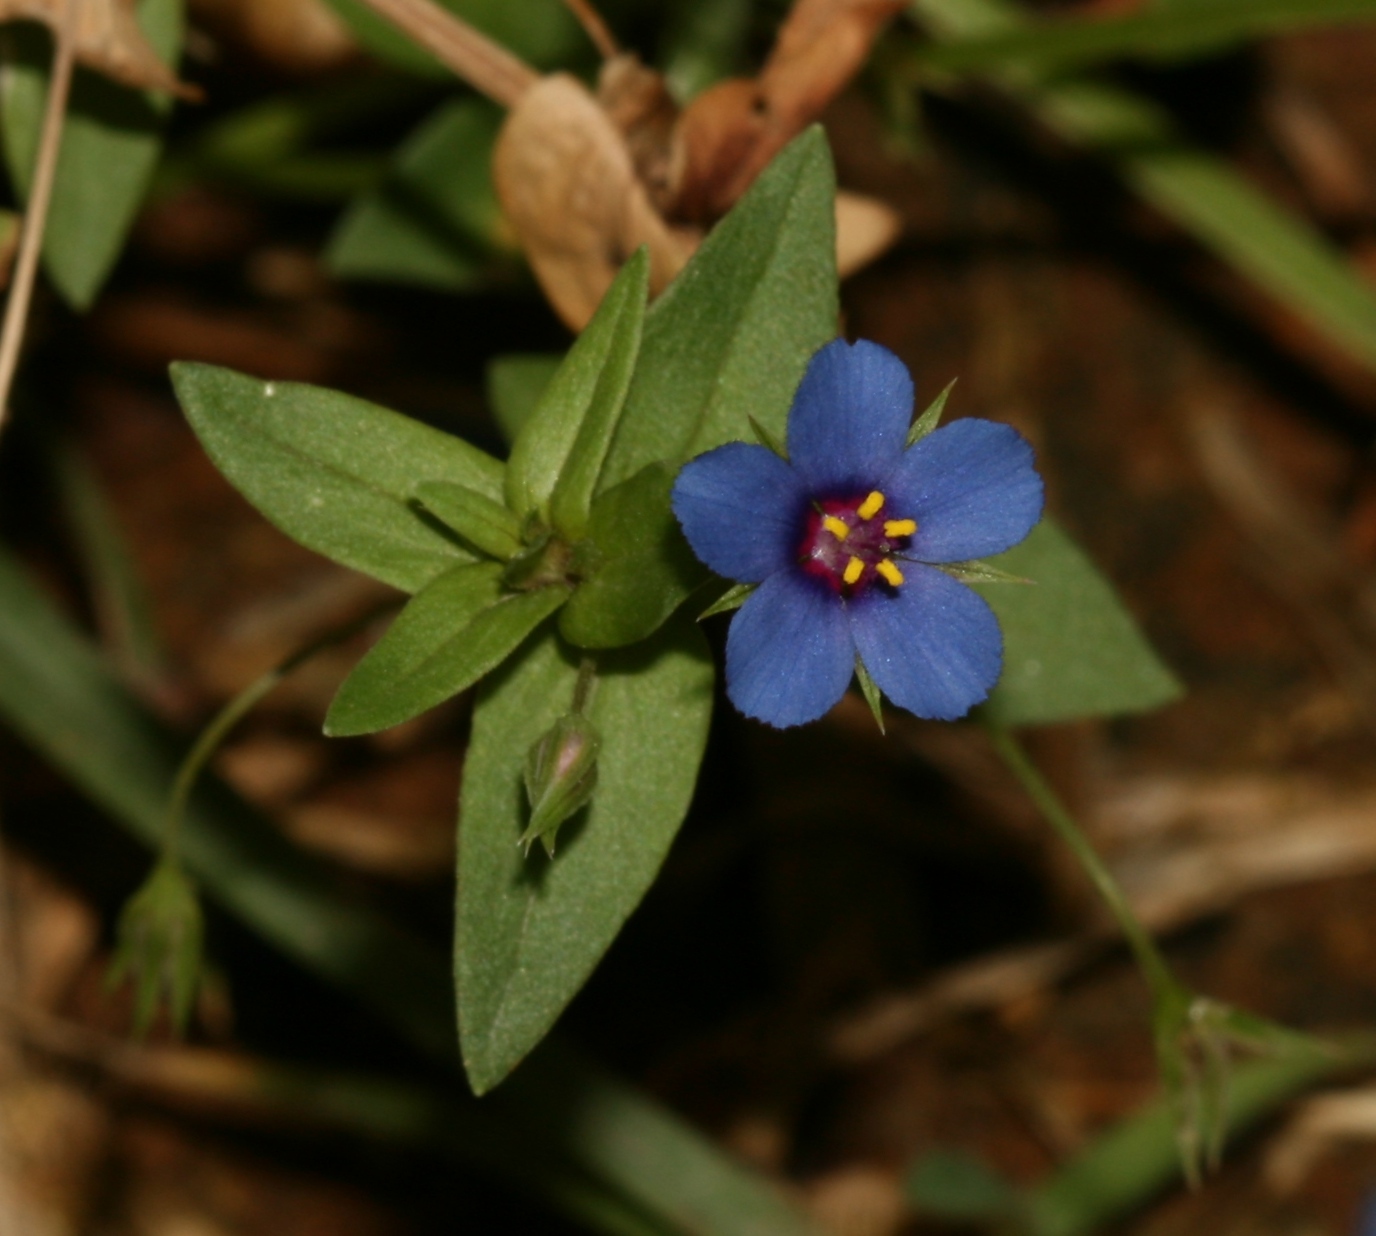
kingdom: Plantae
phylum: Tracheophyta
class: Magnoliopsida
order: Ericales
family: Primulaceae
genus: Lysimachia
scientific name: Lysimachia arvensis
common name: Scarlet pimpernel
